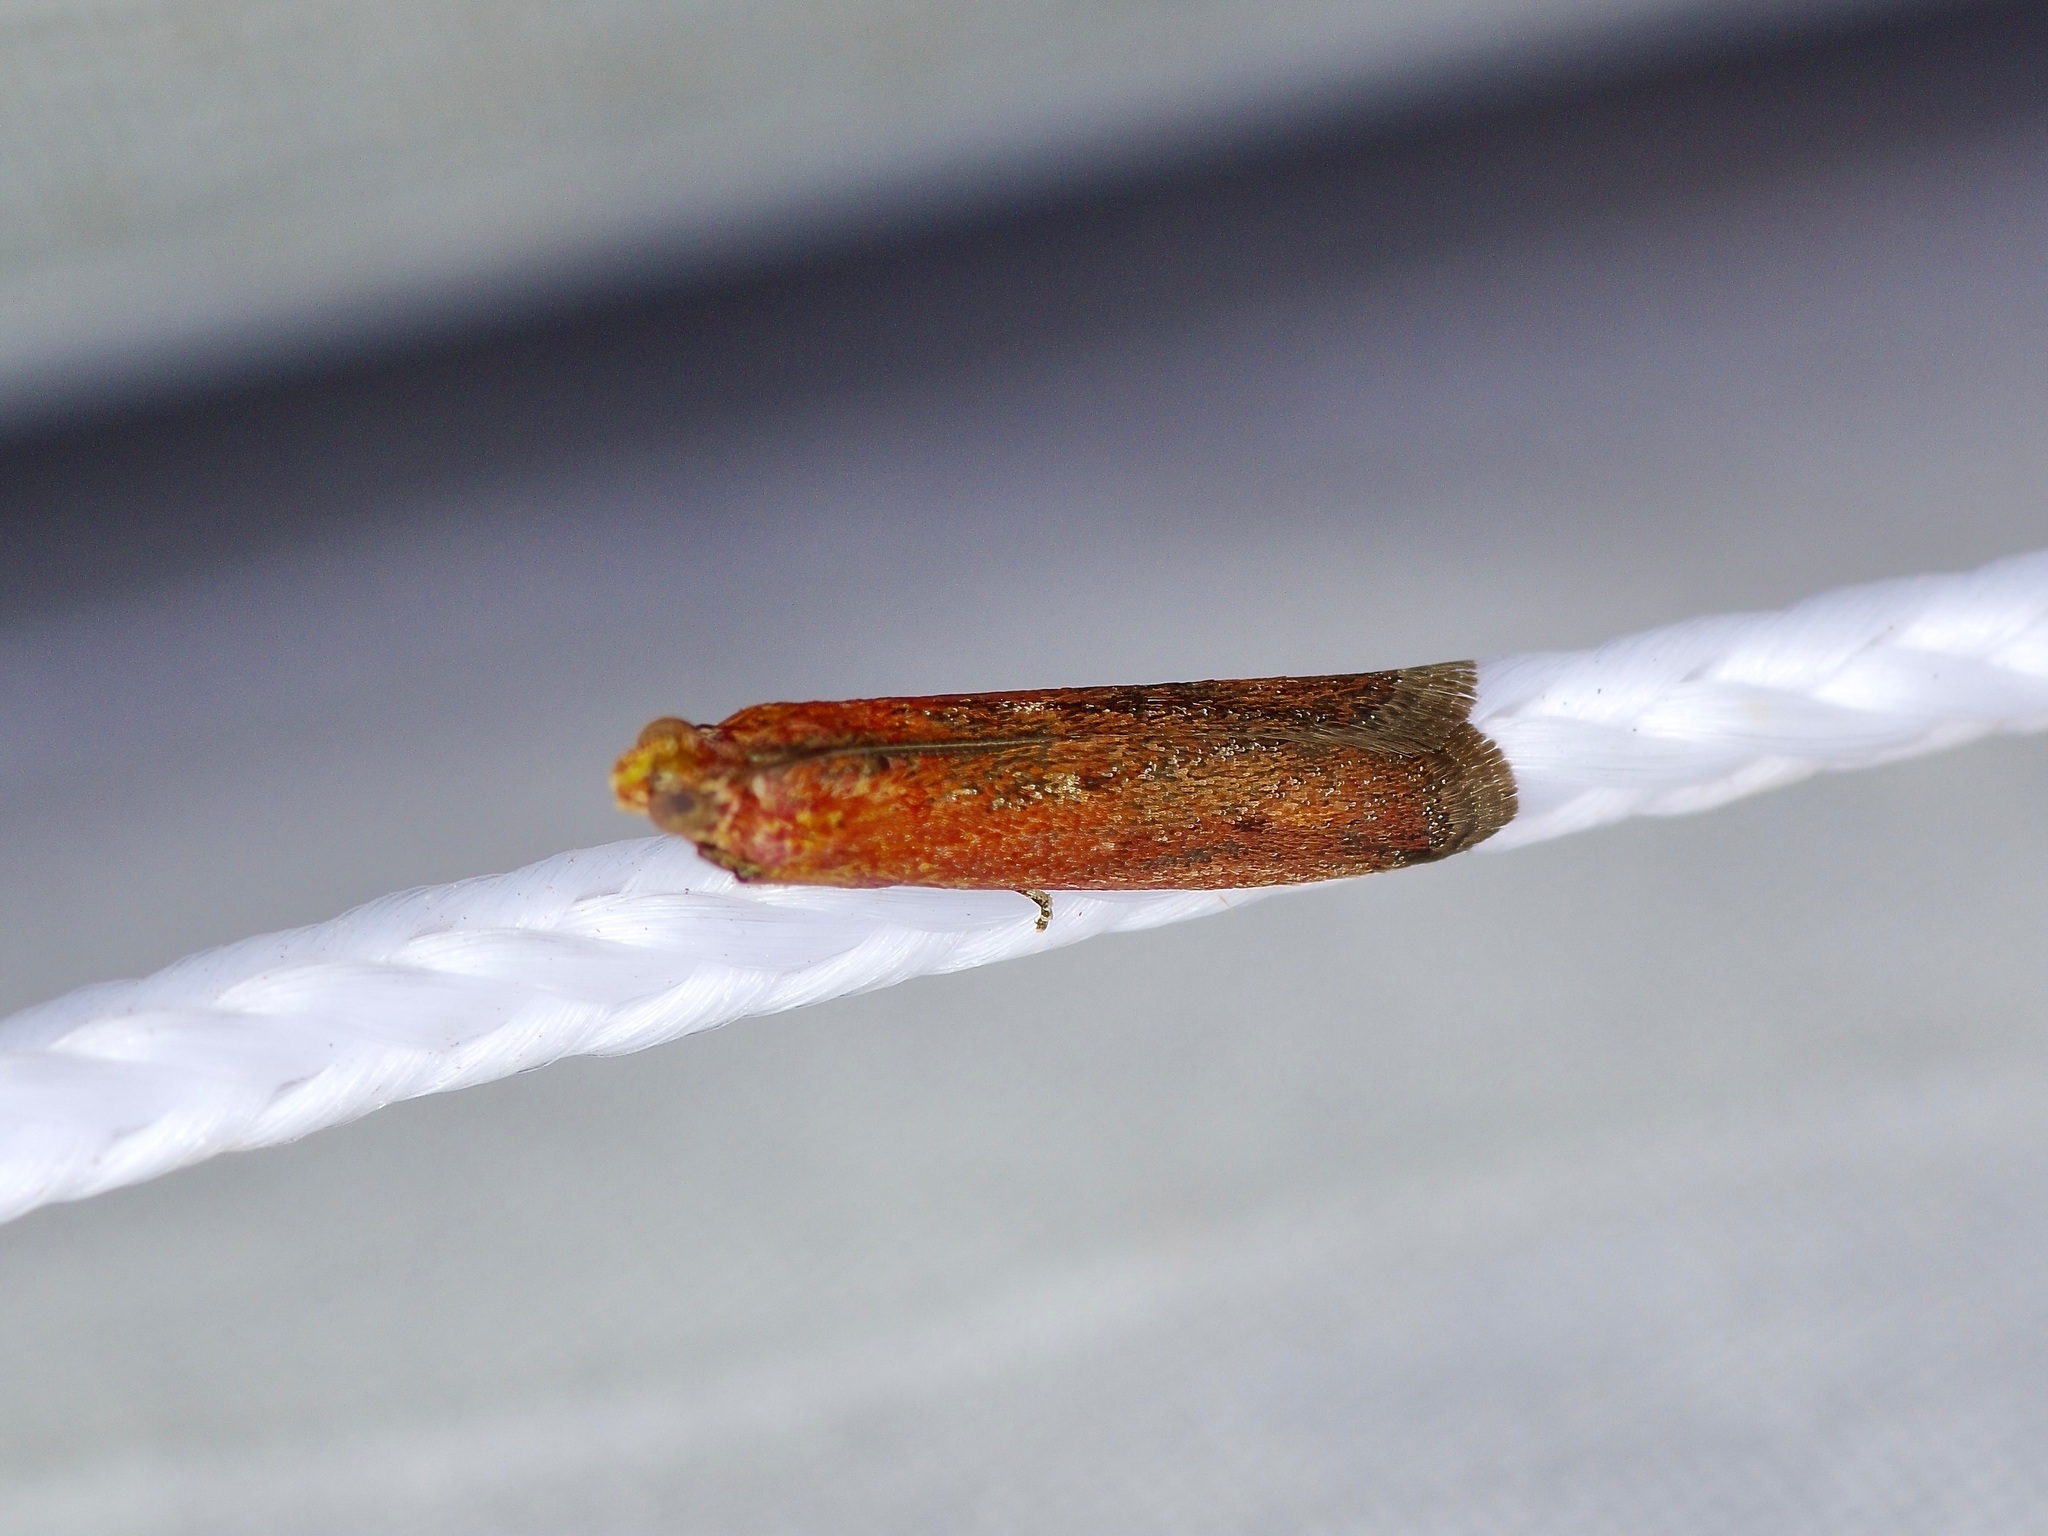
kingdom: Animalia
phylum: Arthropoda
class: Insecta
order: Lepidoptera
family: Pyralidae
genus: Elasmopalpus
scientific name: Elasmopalpus lignosella
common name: Lesser cornstalk borer
